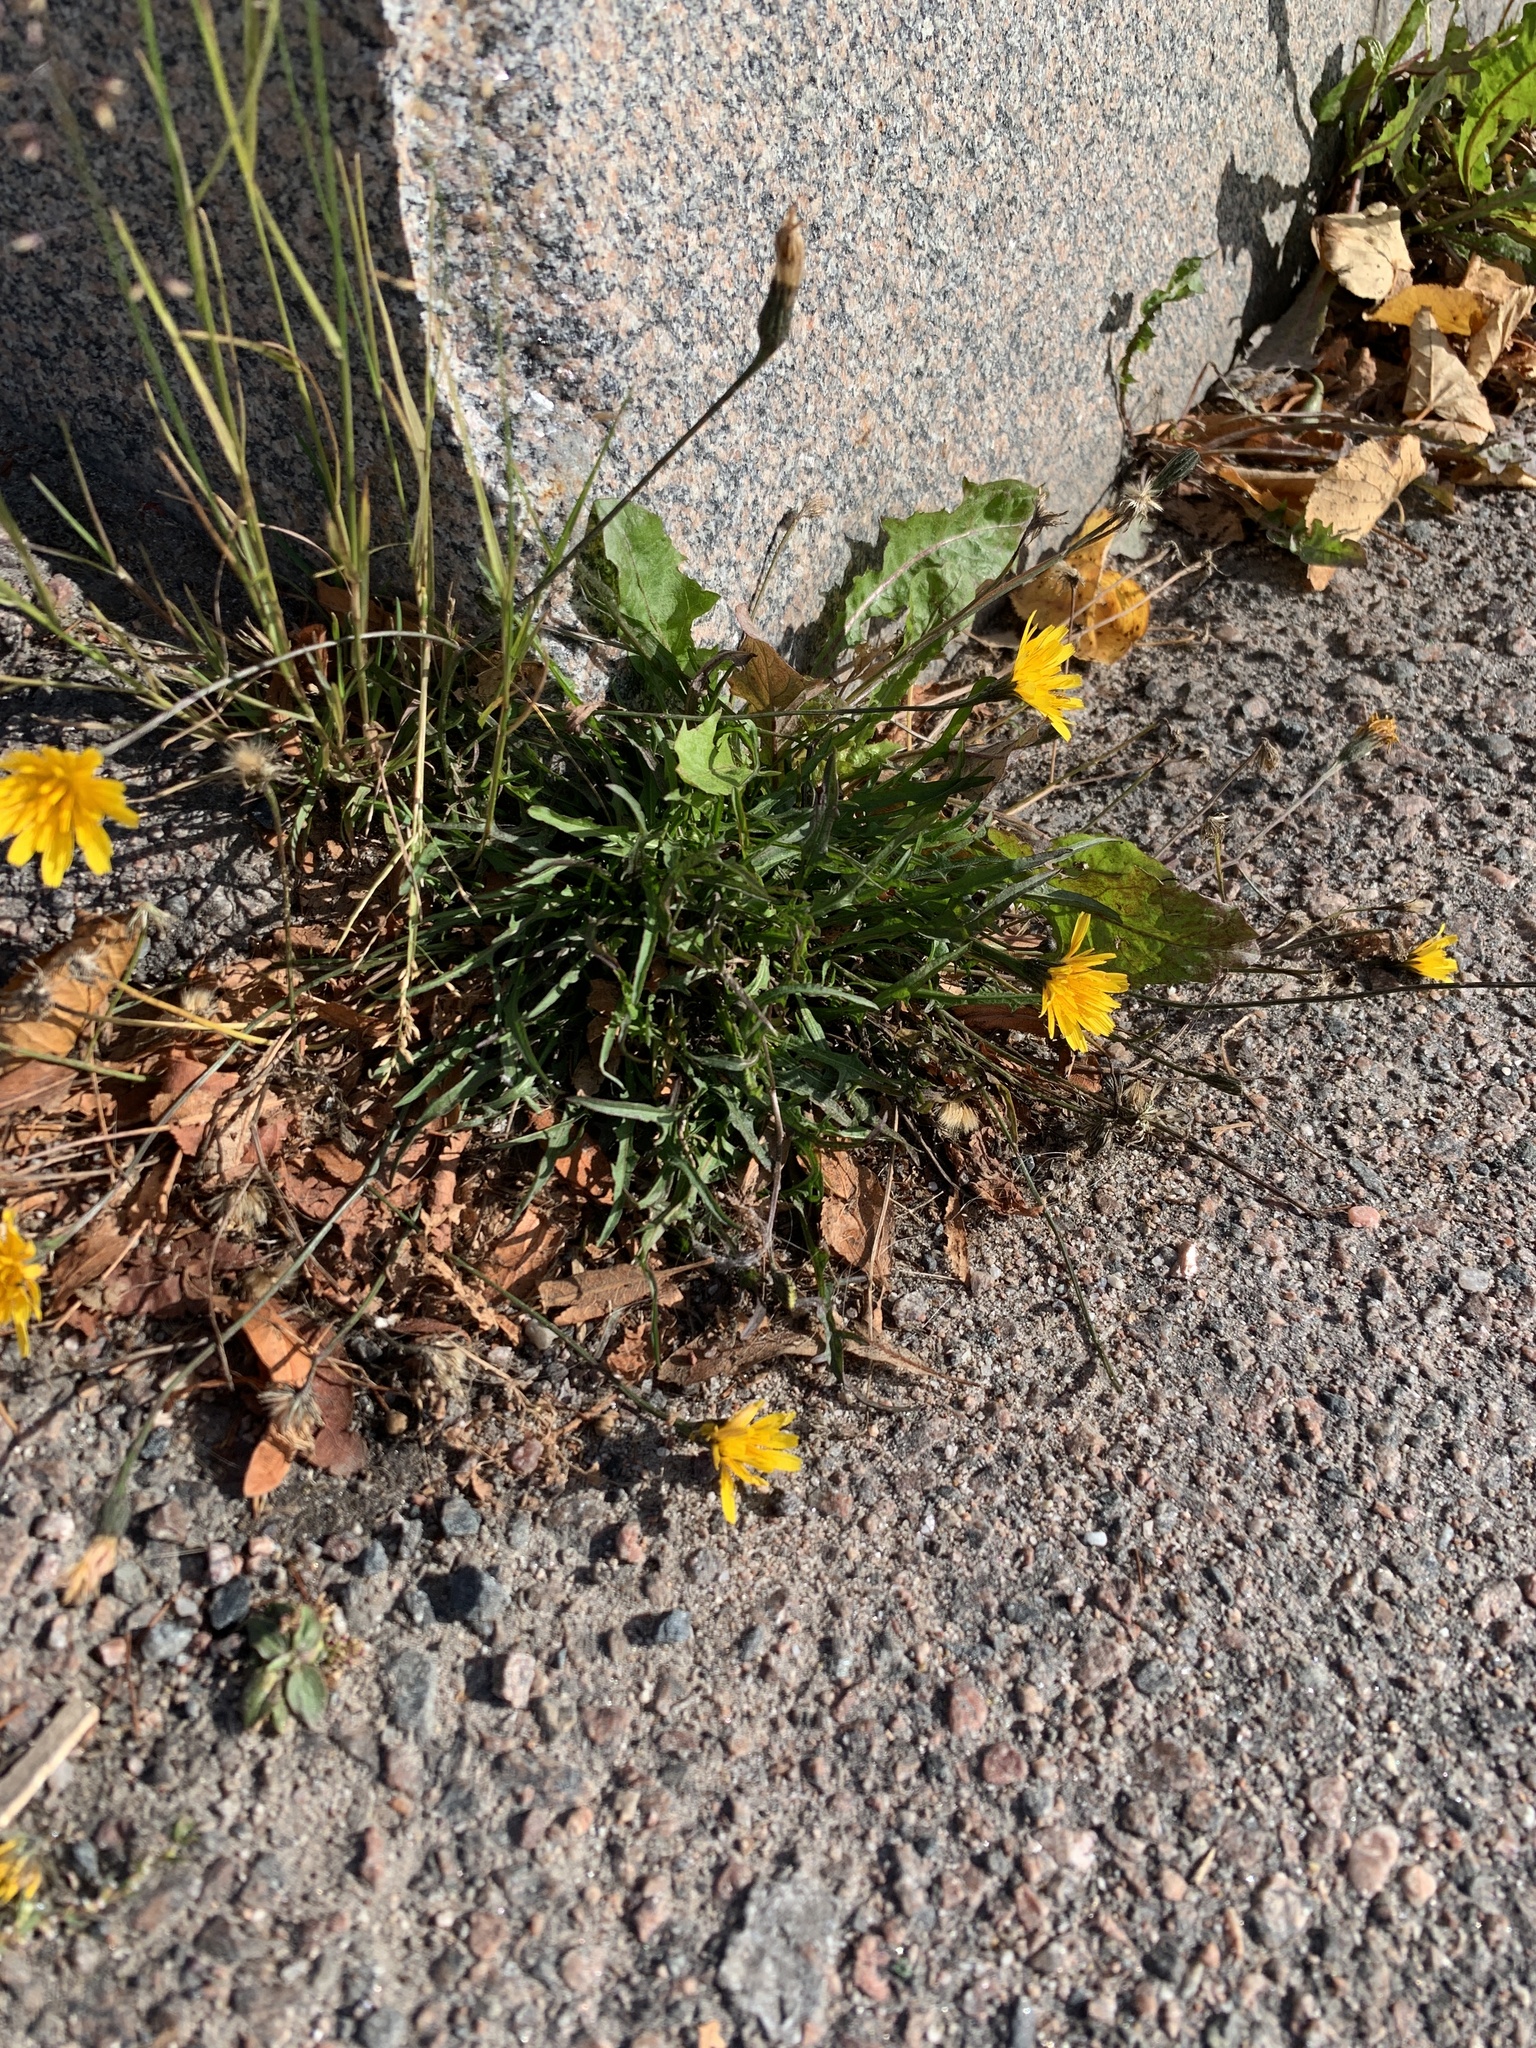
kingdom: Plantae
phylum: Tracheophyta
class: Magnoliopsida
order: Asterales
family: Asteraceae
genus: Scorzoneroides
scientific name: Scorzoneroides autumnalis
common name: Autumn hawkbit
